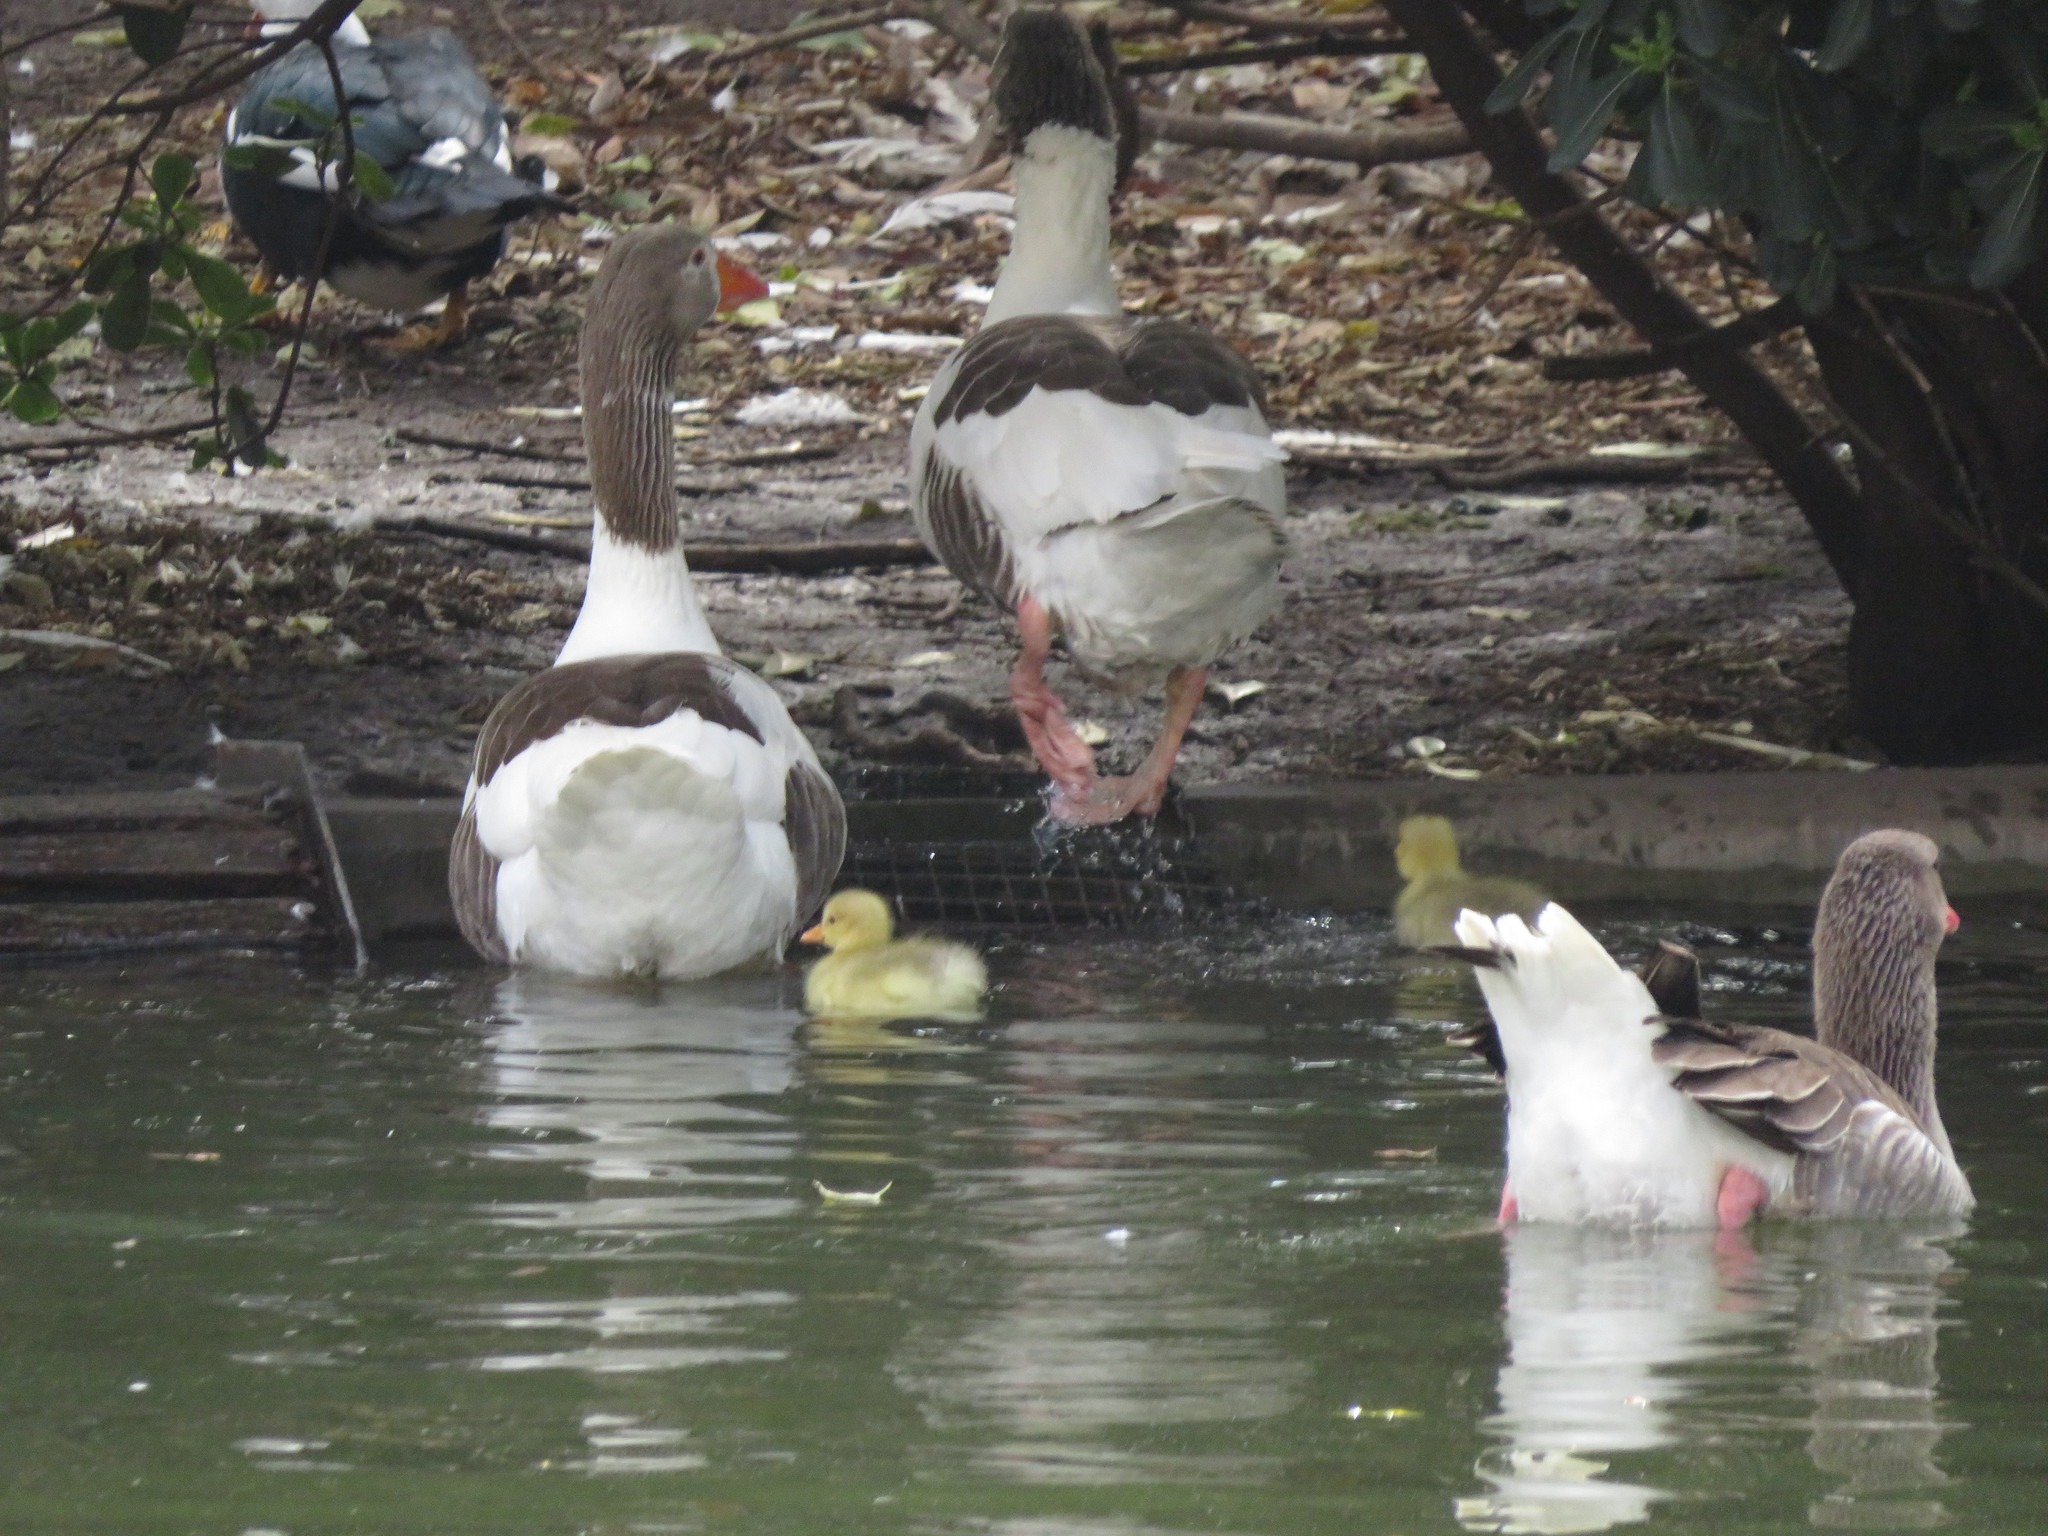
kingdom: Animalia
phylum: Chordata
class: Aves
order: Anseriformes
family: Anatidae
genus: Anser
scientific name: Anser anser
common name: Greylag goose
